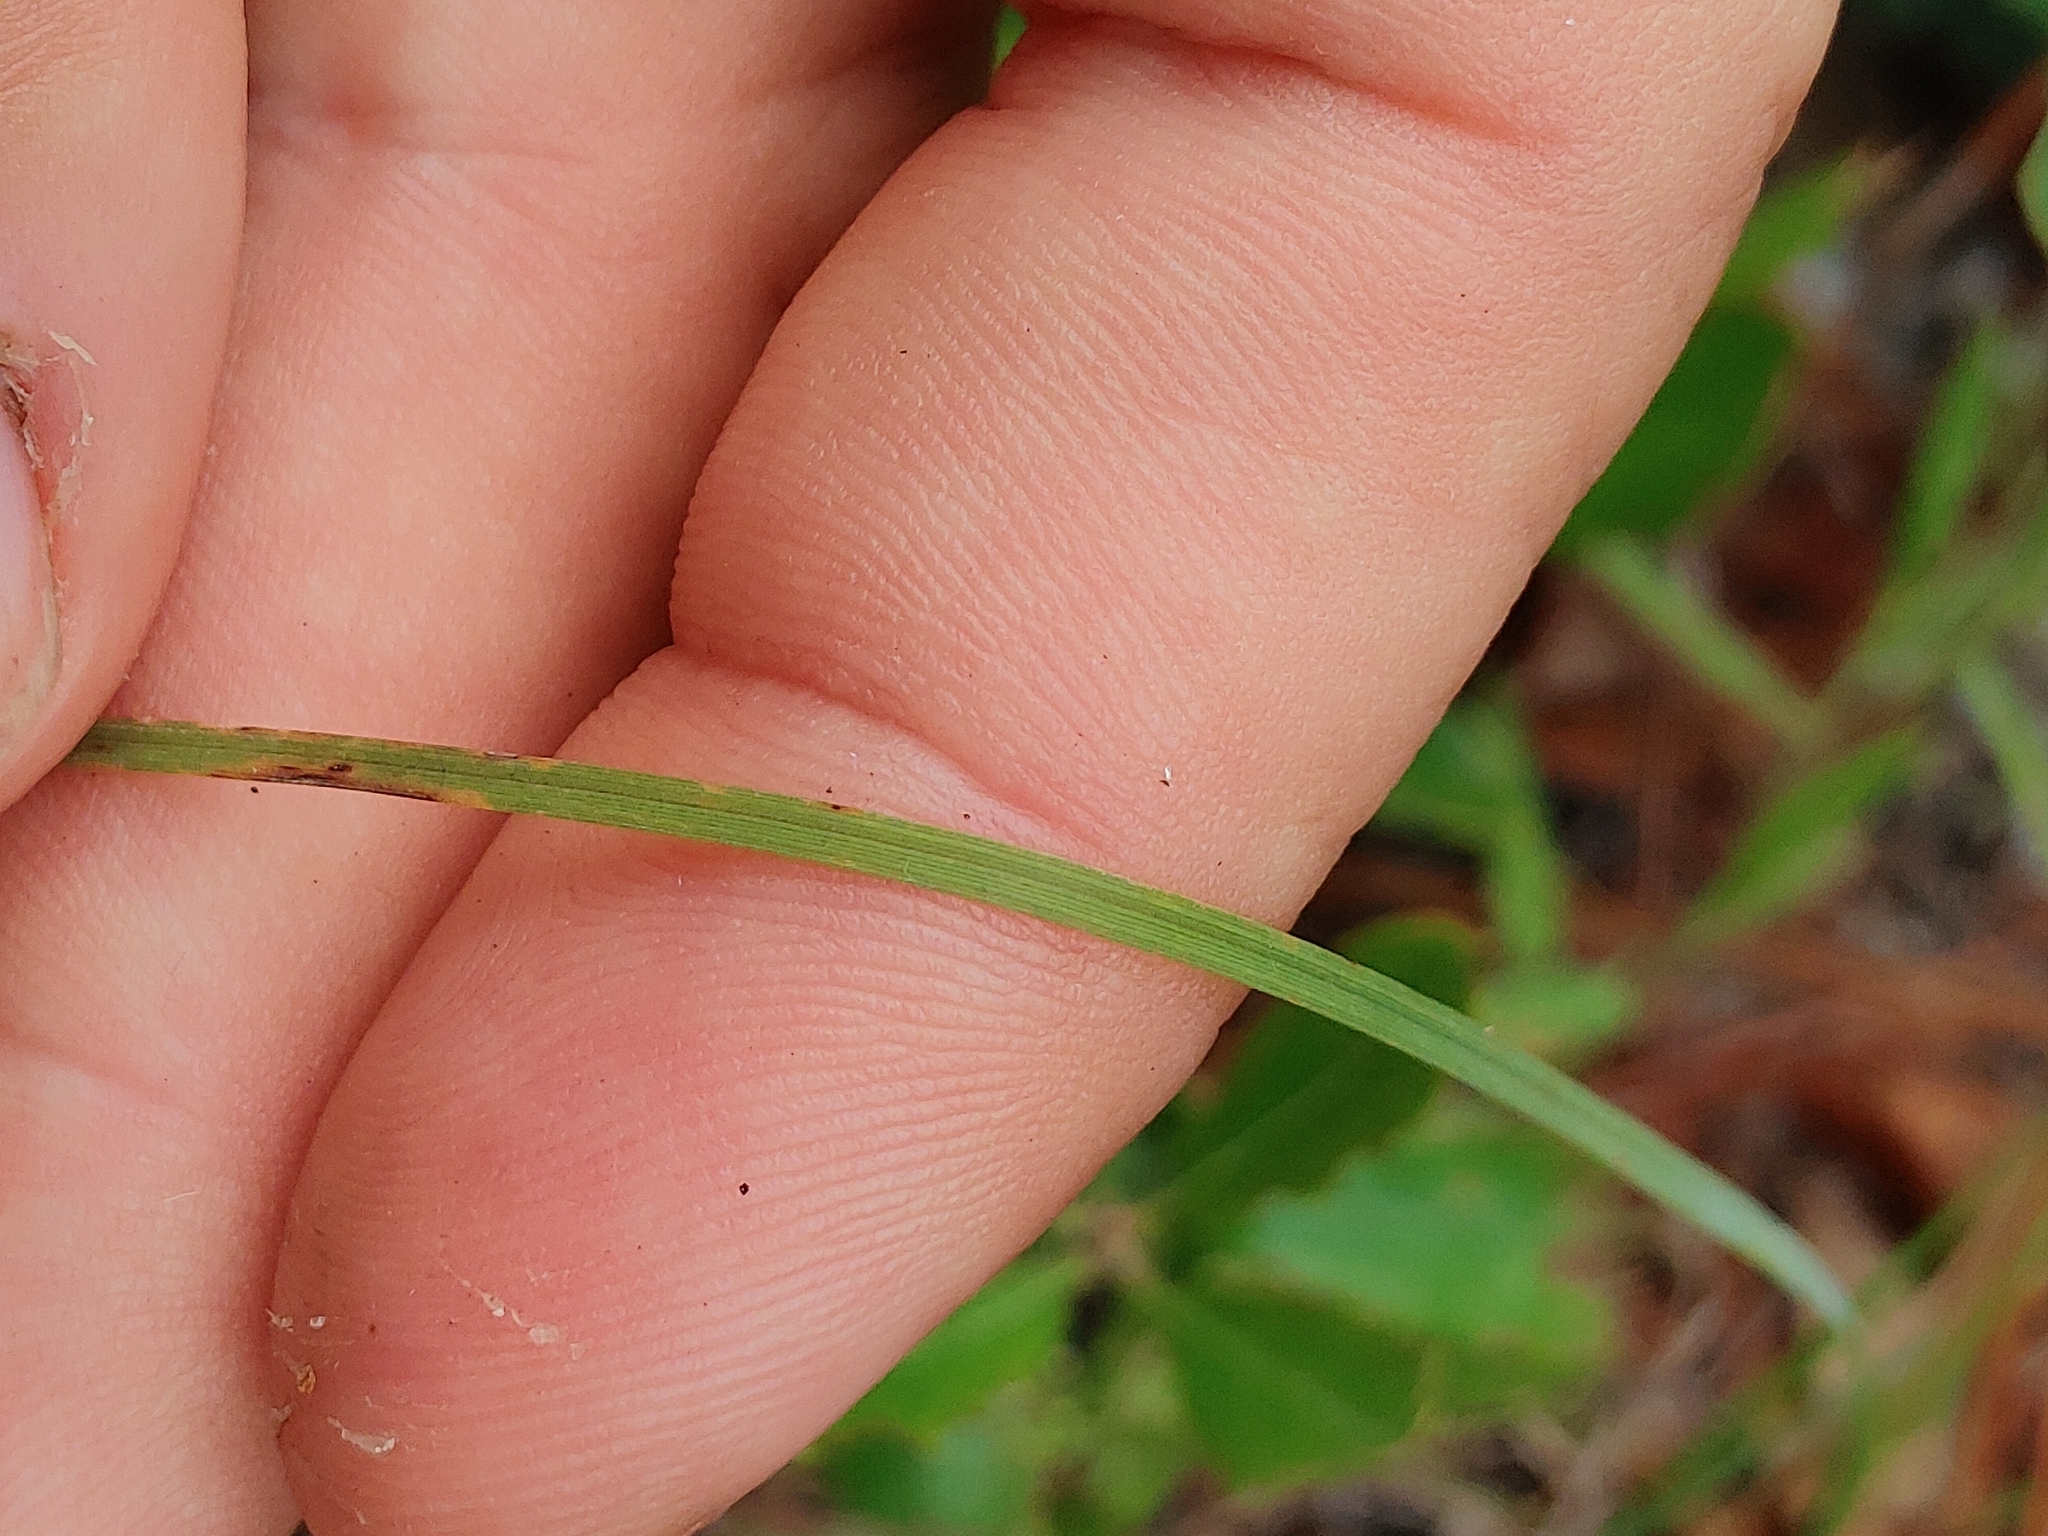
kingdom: Plantae
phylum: Tracheophyta
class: Liliopsida
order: Poales
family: Poaceae
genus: Aristida
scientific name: Aristida spiciformis
